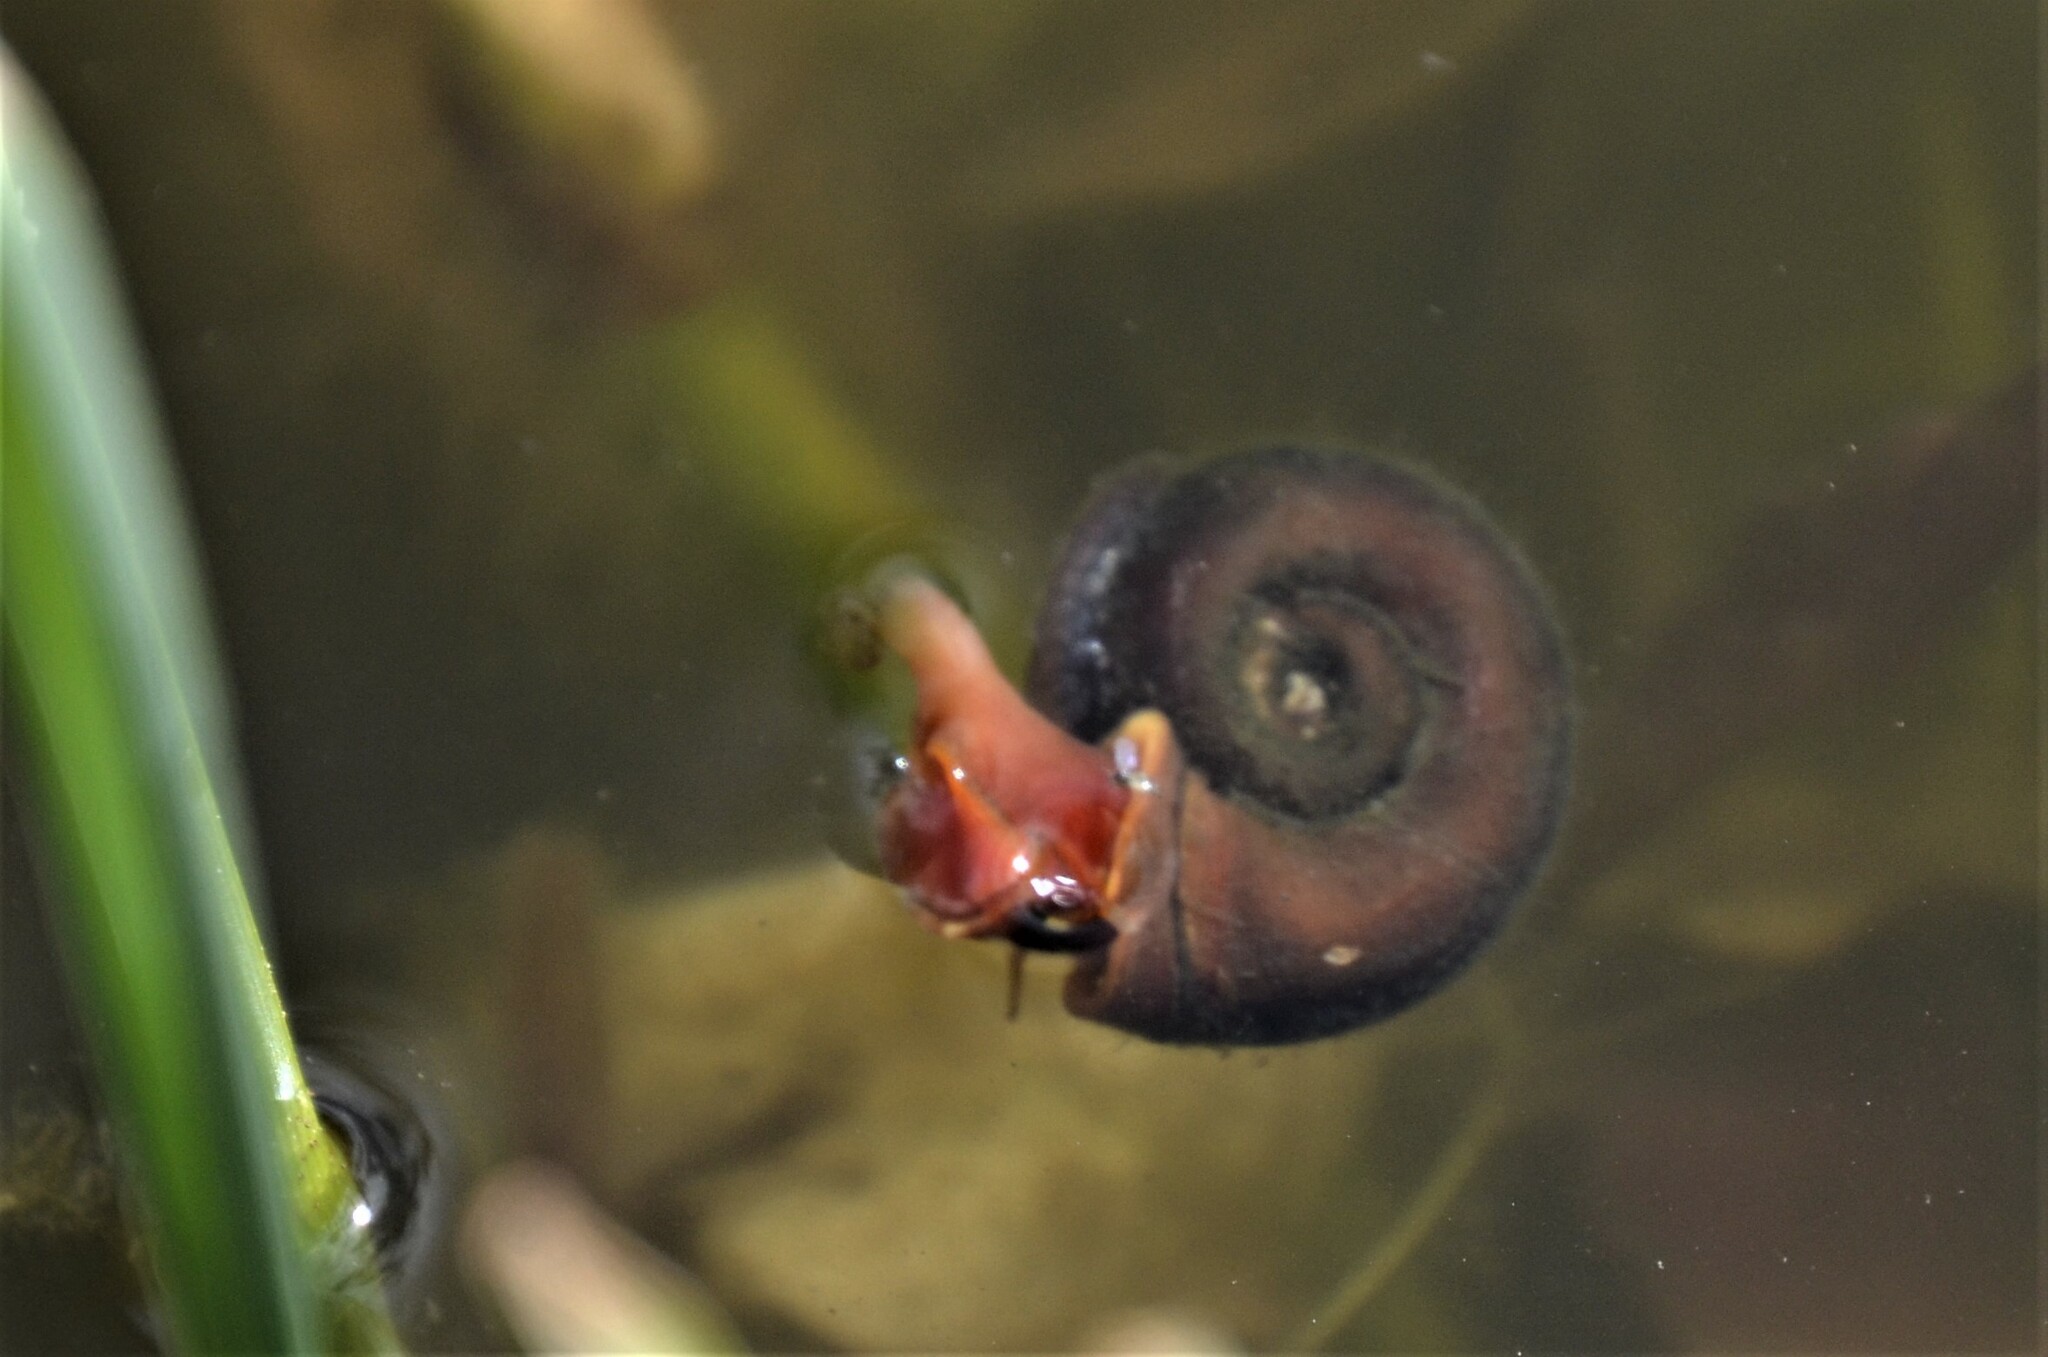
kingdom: Animalia
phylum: Mollusca
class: Gastropoda
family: Planorbidae
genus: Planorbarius
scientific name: Planorbarius corneus
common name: Great ramshorn
